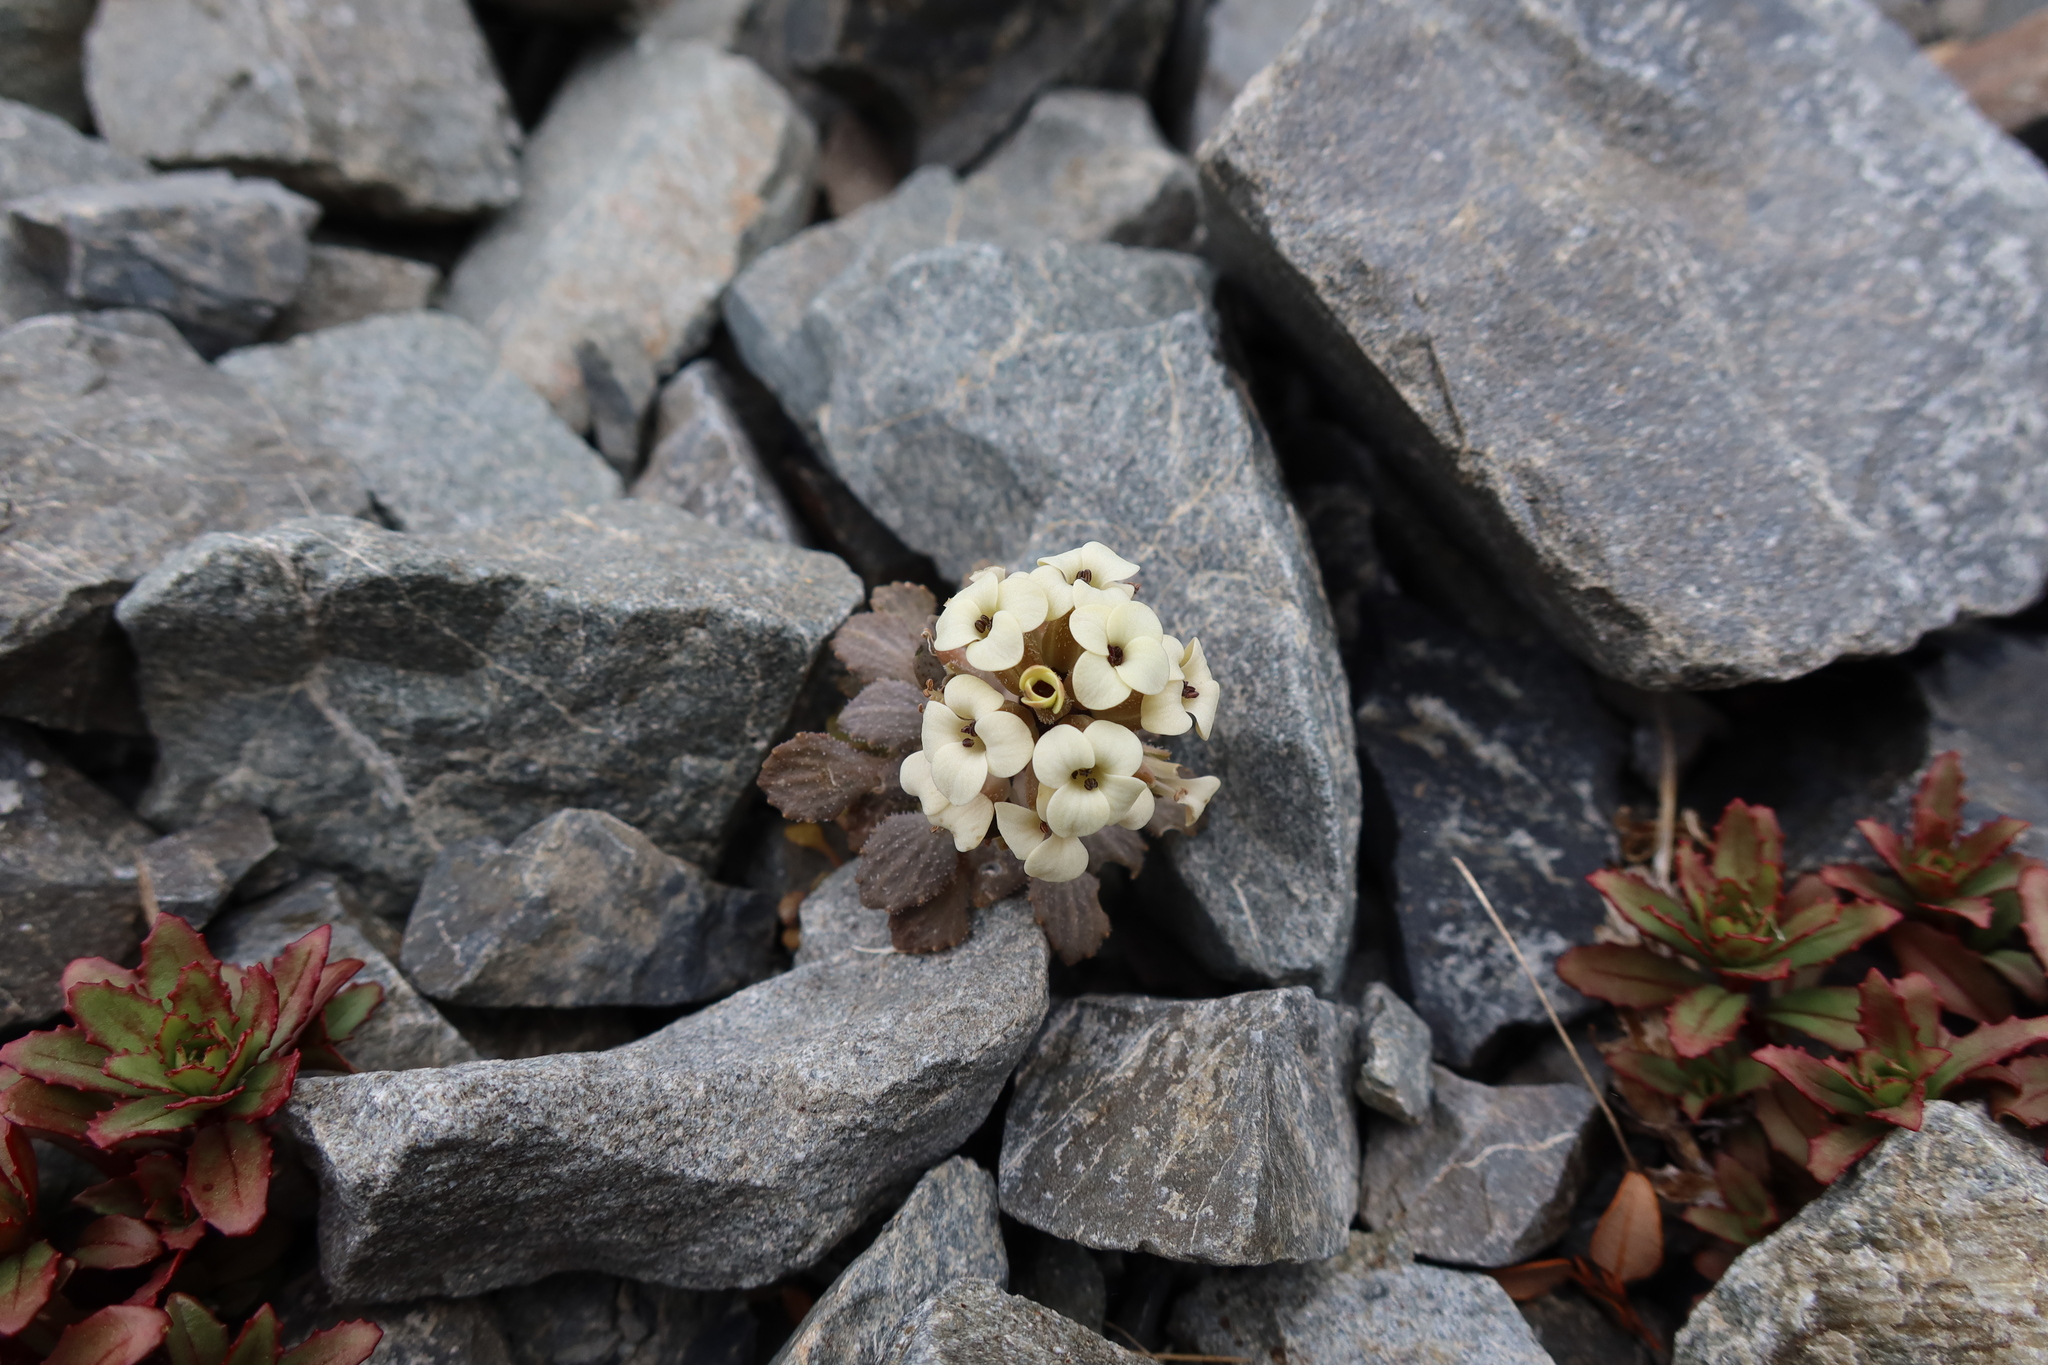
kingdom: Plantae
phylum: Tracheophyta
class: Magnoliopsida
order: Brassicales
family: Brassicaceae
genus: Notothlaspi
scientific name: Notothlaspi rosulatum
